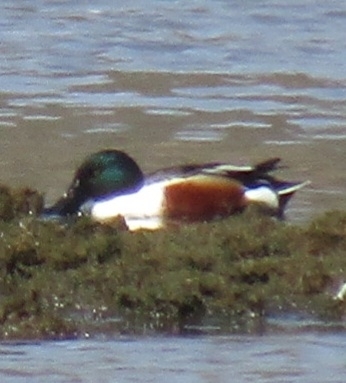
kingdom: Animalia
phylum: Chordata
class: Aves
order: Anseriformes
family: Anatidae
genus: Spatula
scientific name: Spatula clypeata
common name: Northern shoveler
